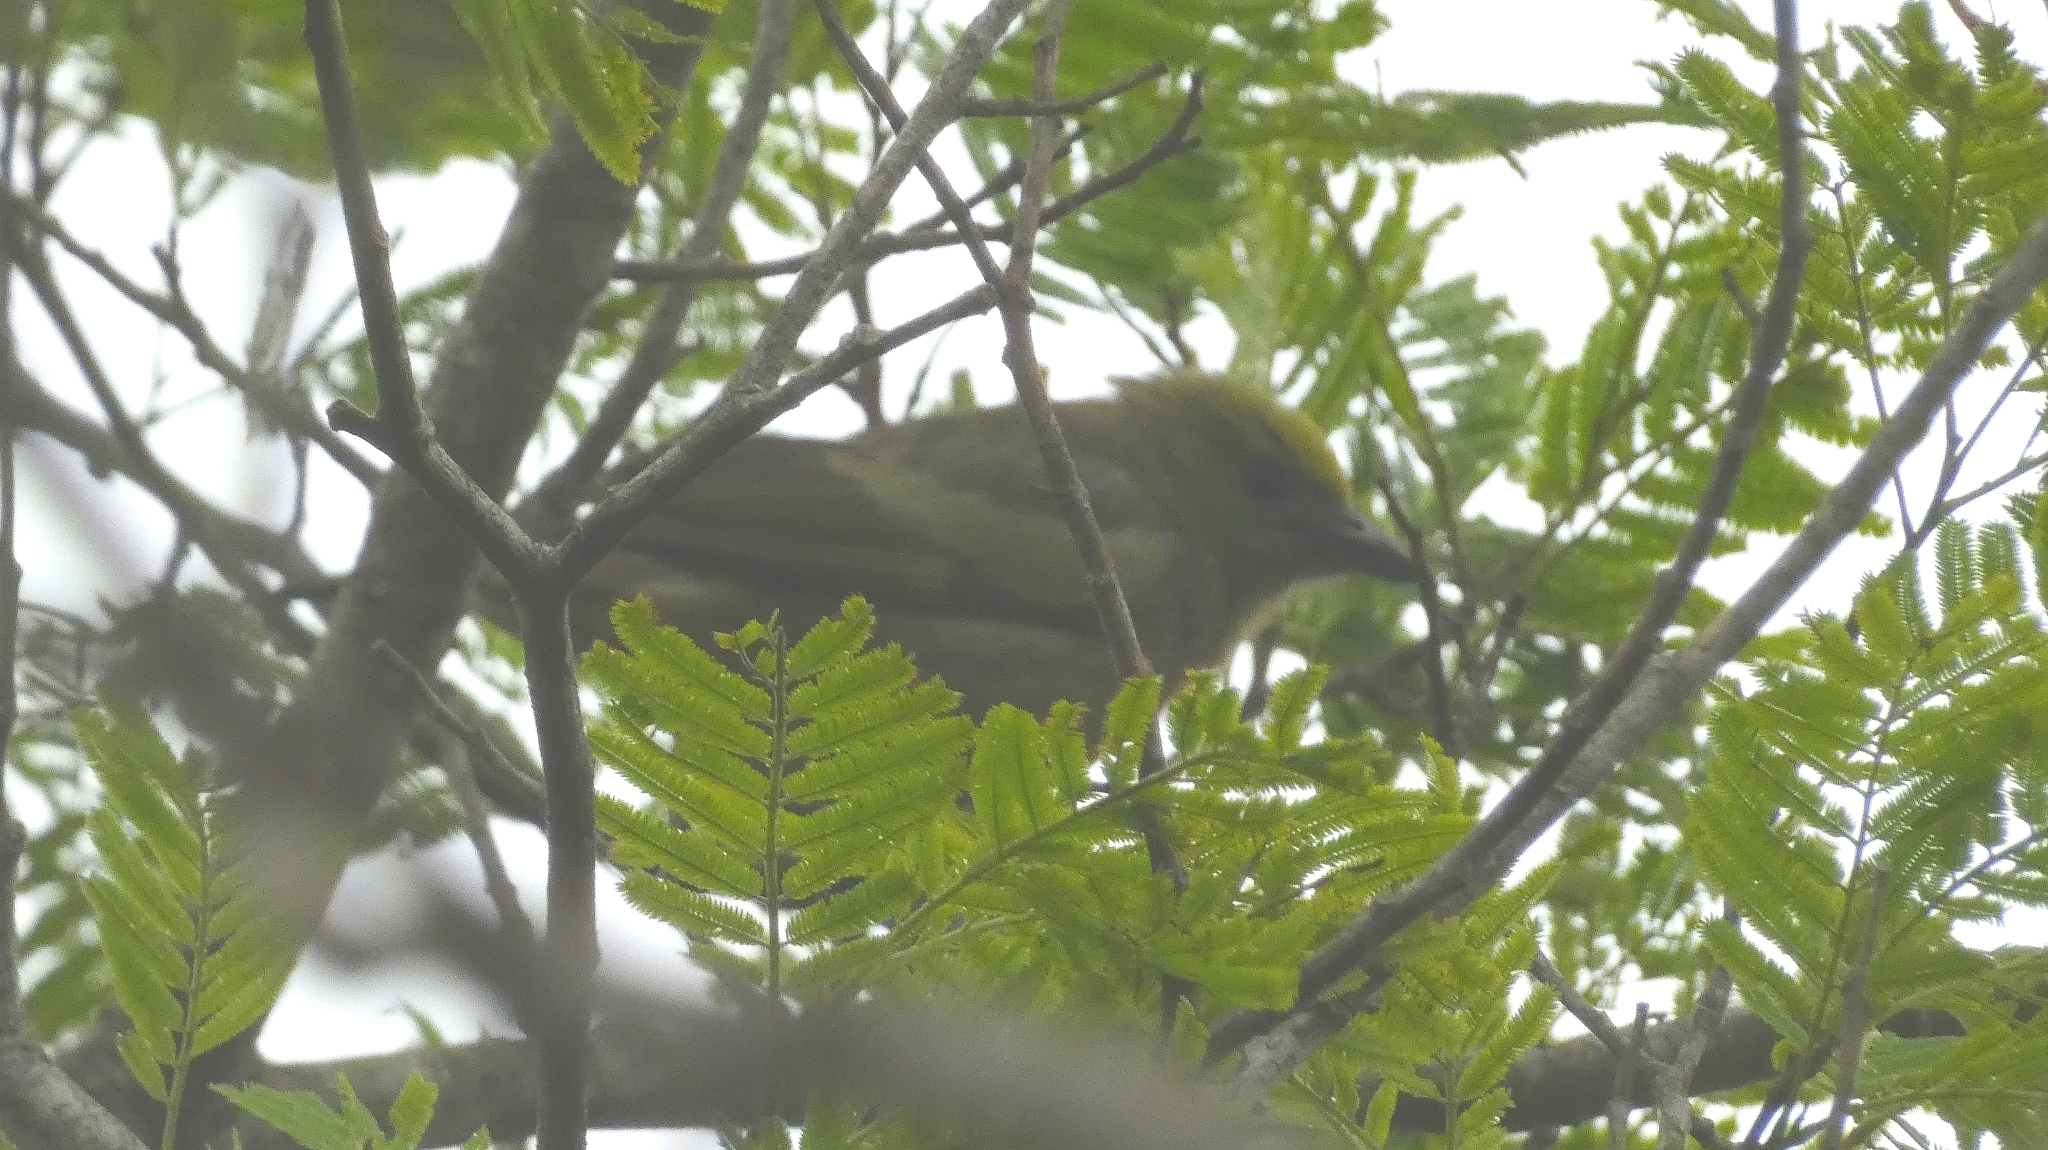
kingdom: Animalia
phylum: Chordata
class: Aves
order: Passeriformes
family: Thraupidae
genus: Thraupis
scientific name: Thraupis palmarum
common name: Palm tanager
